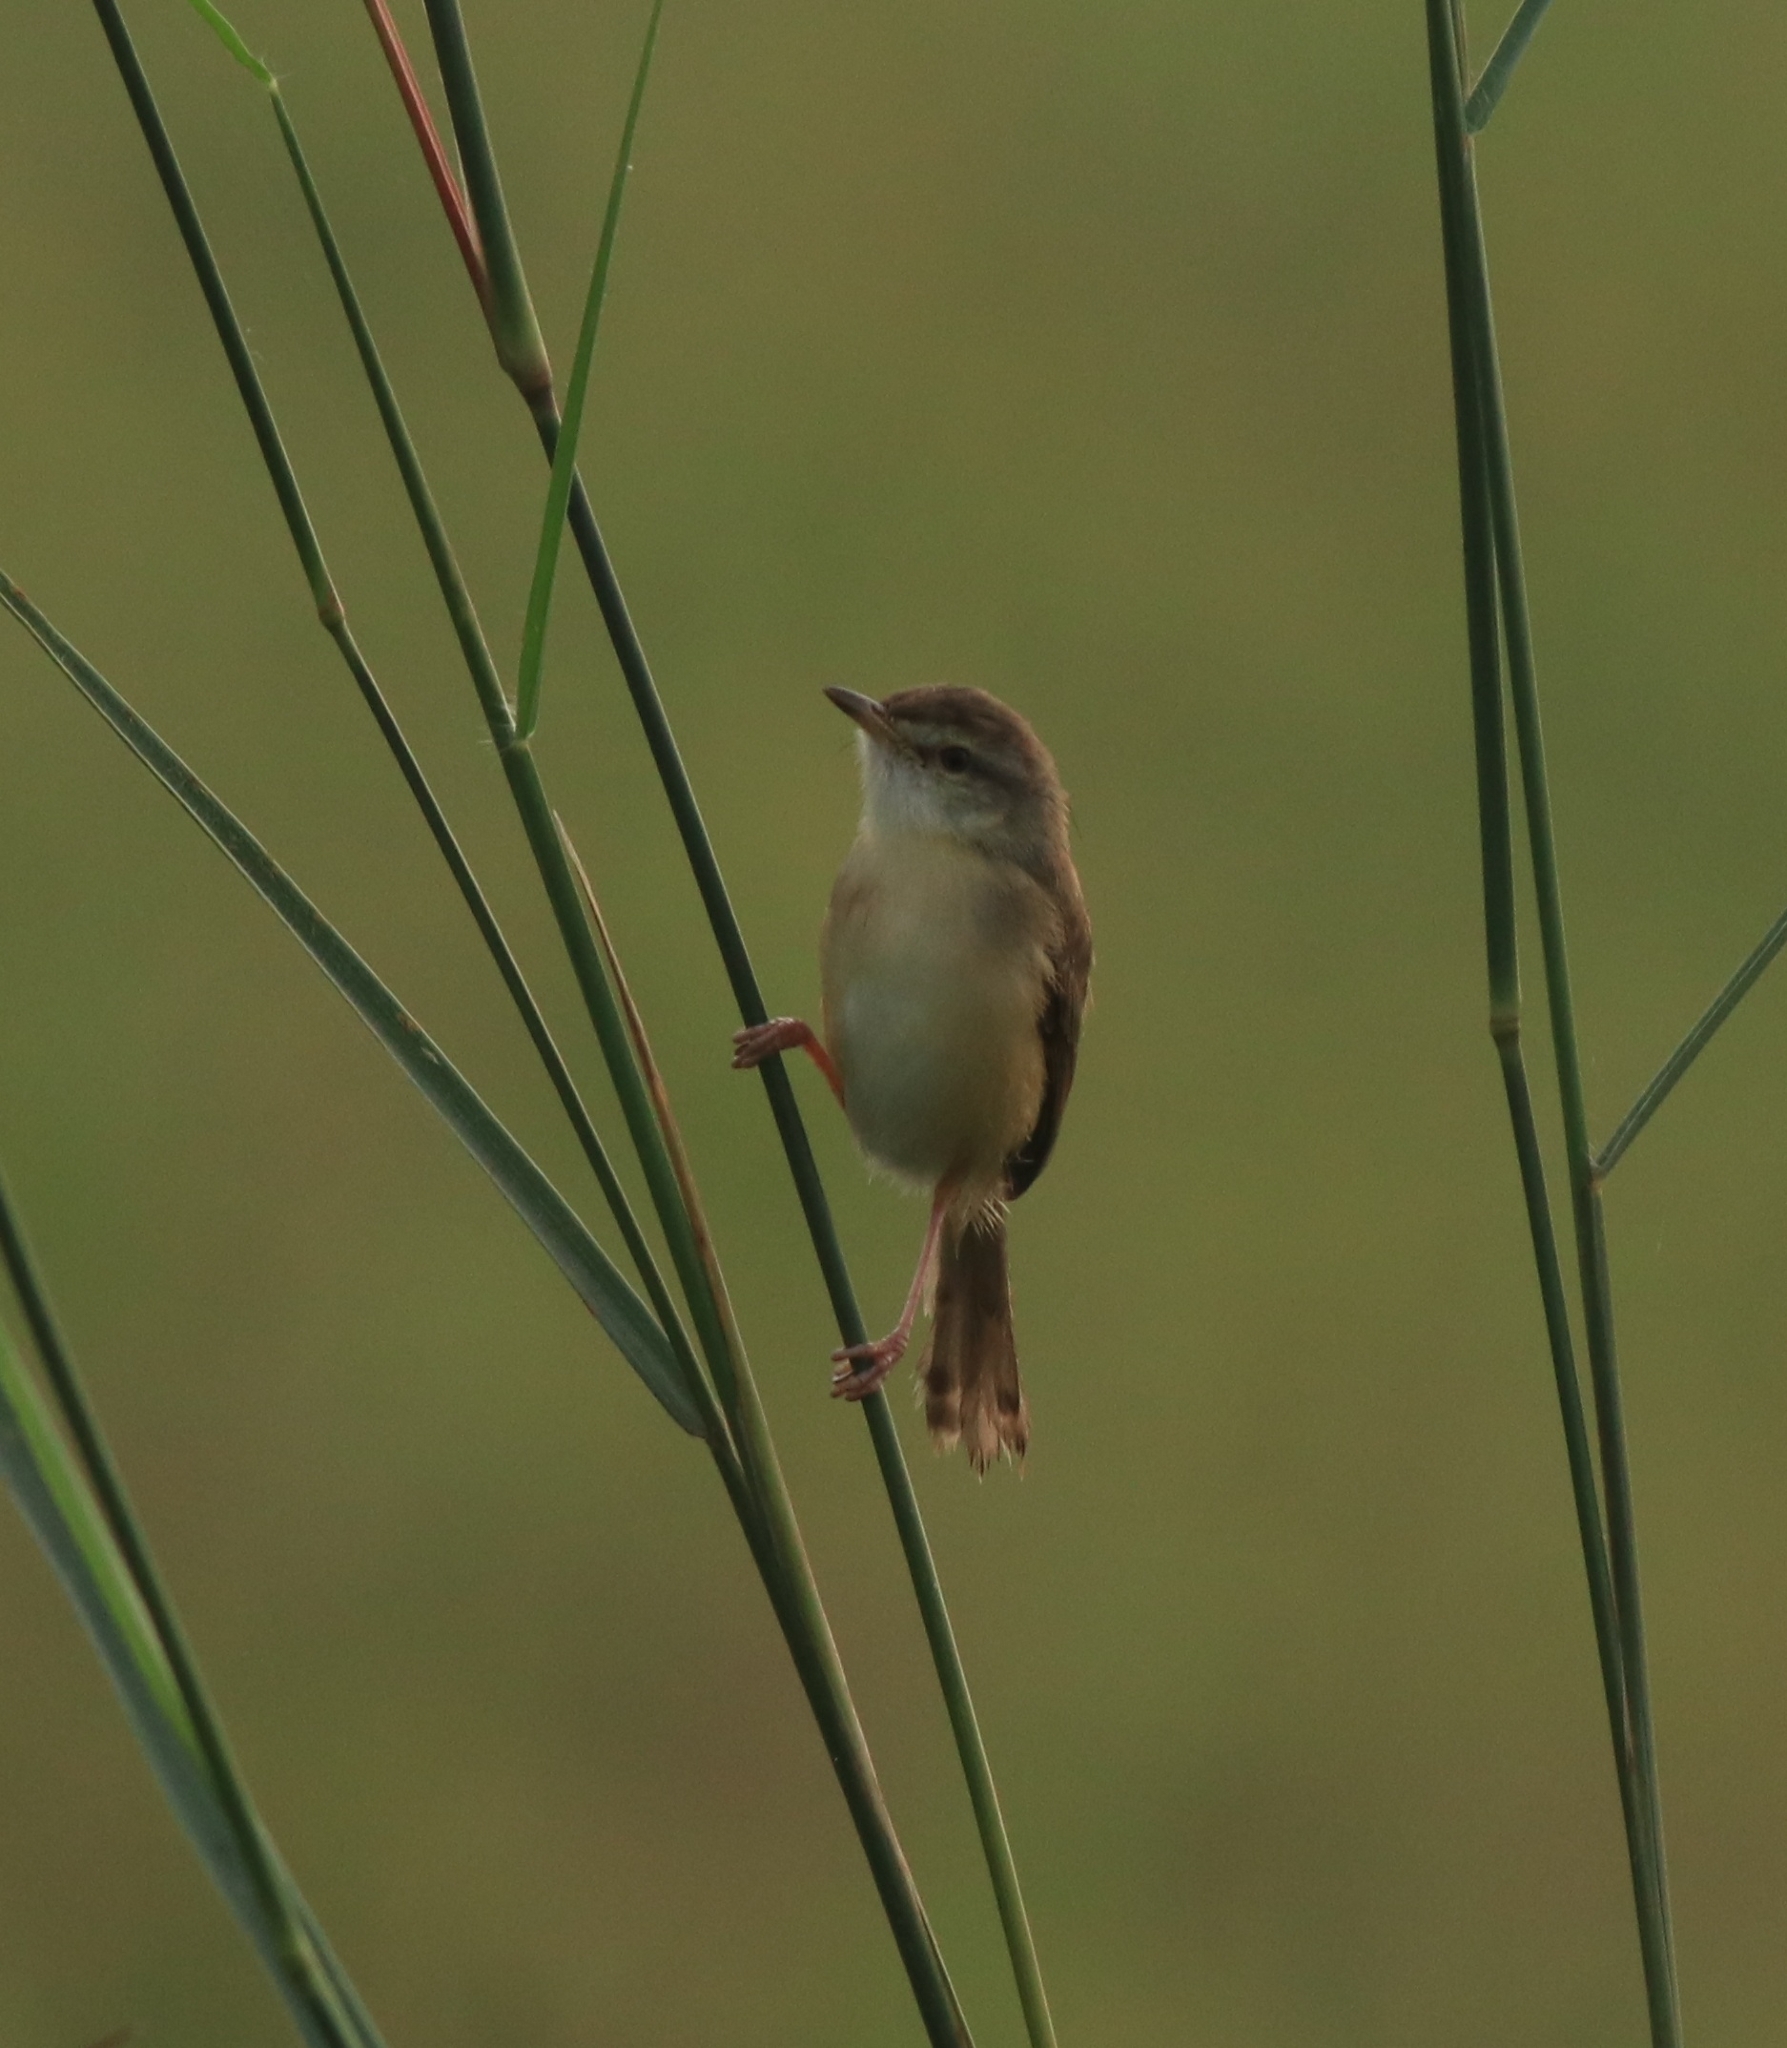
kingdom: Animalia
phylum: Chordata
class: Aves
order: Passeriformes
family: Cisticolidae
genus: Prinia
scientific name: Prinia inornata
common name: Plain prinia
